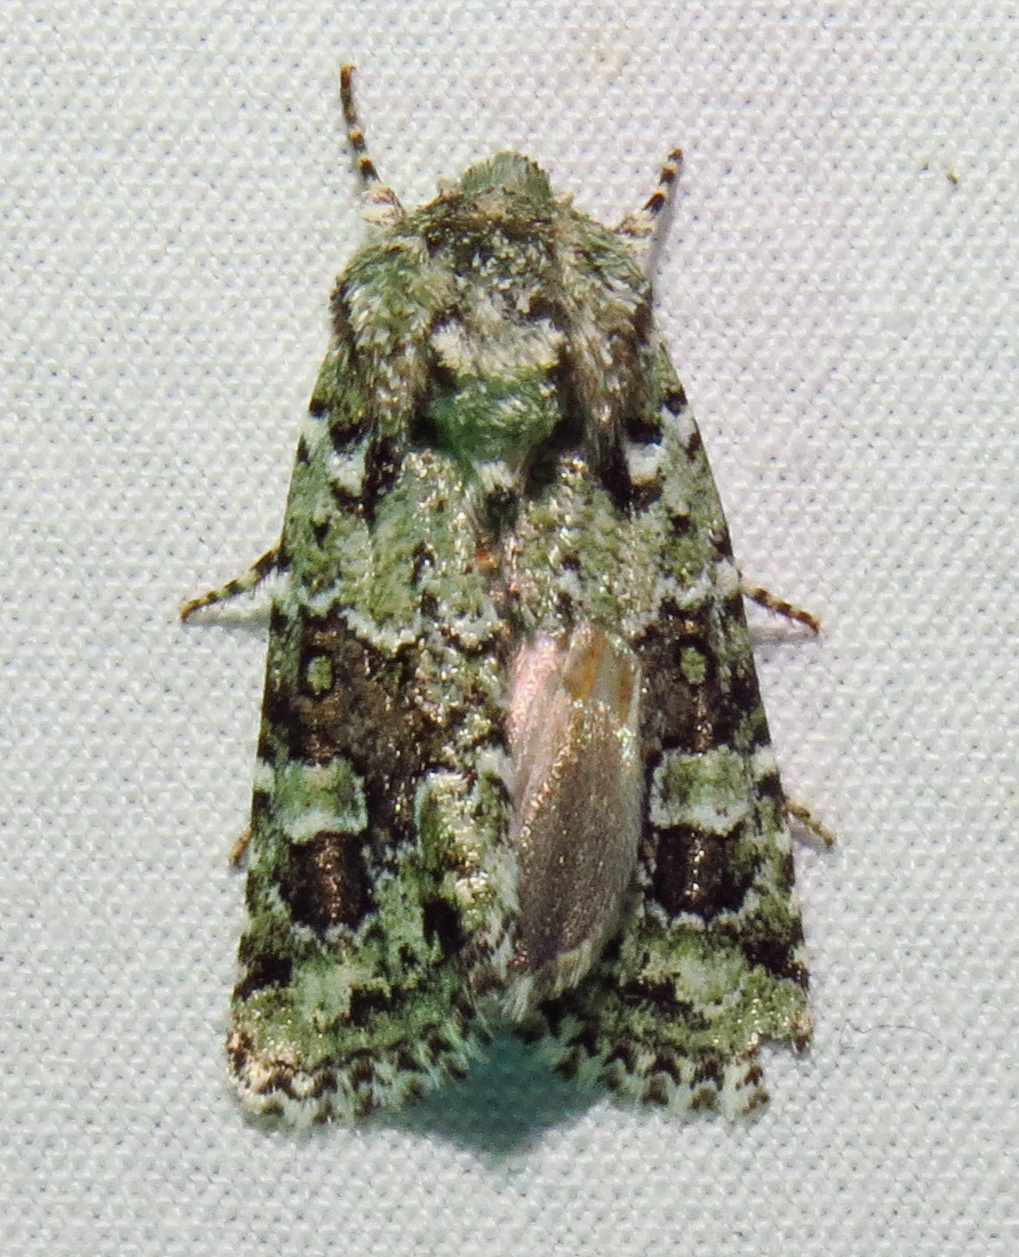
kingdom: Animalia
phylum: Arthropoda
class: Insecta
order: Lepidoptera
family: Noctuidae
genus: Lacinipolia
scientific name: Lacinipolia laudabilis
